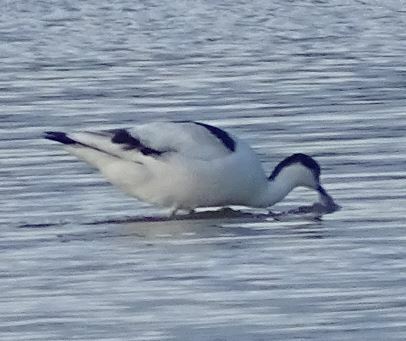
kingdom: Animalia
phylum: Chordata
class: Aves
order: Charadriiformes
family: Recurvirostridae
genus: Recurvirostra
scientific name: Recurvirostra avosetta
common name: Pied avocet
